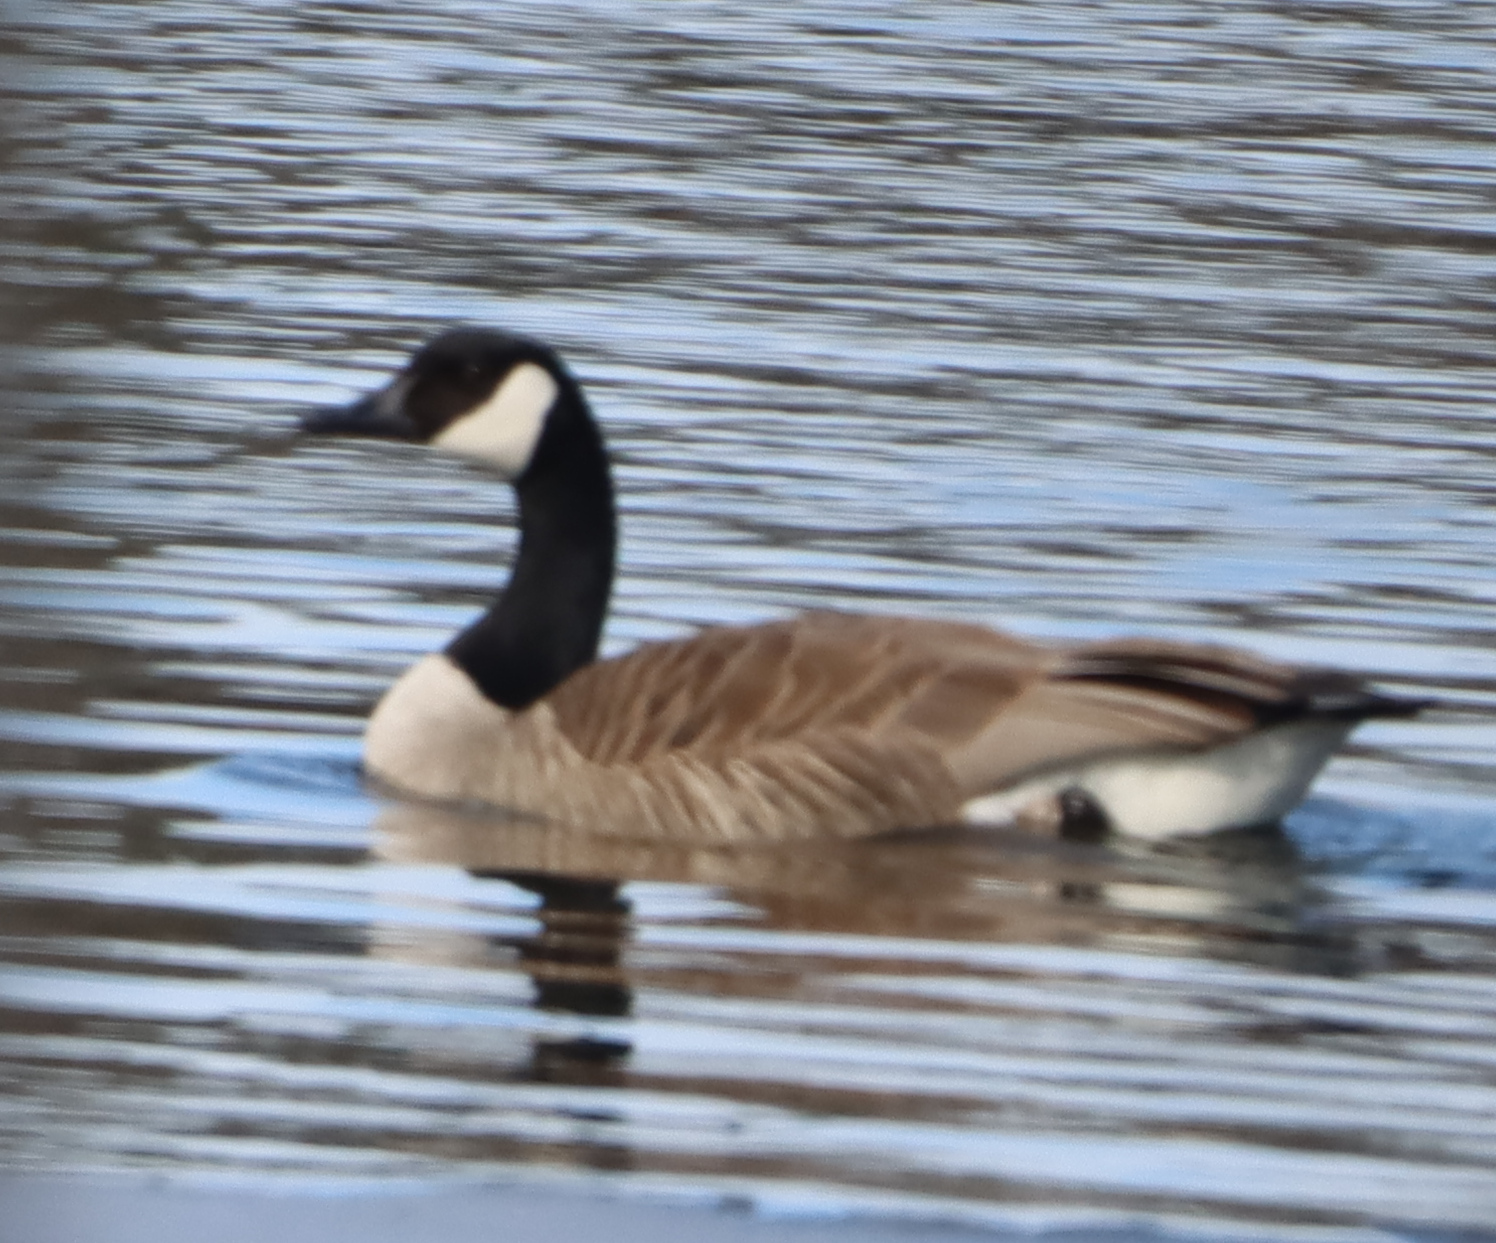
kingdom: Animalia
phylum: Chordata
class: Aves
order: Anseriformes
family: Anatidae
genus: Branta
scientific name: Branta canadensis
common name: Canada goose
